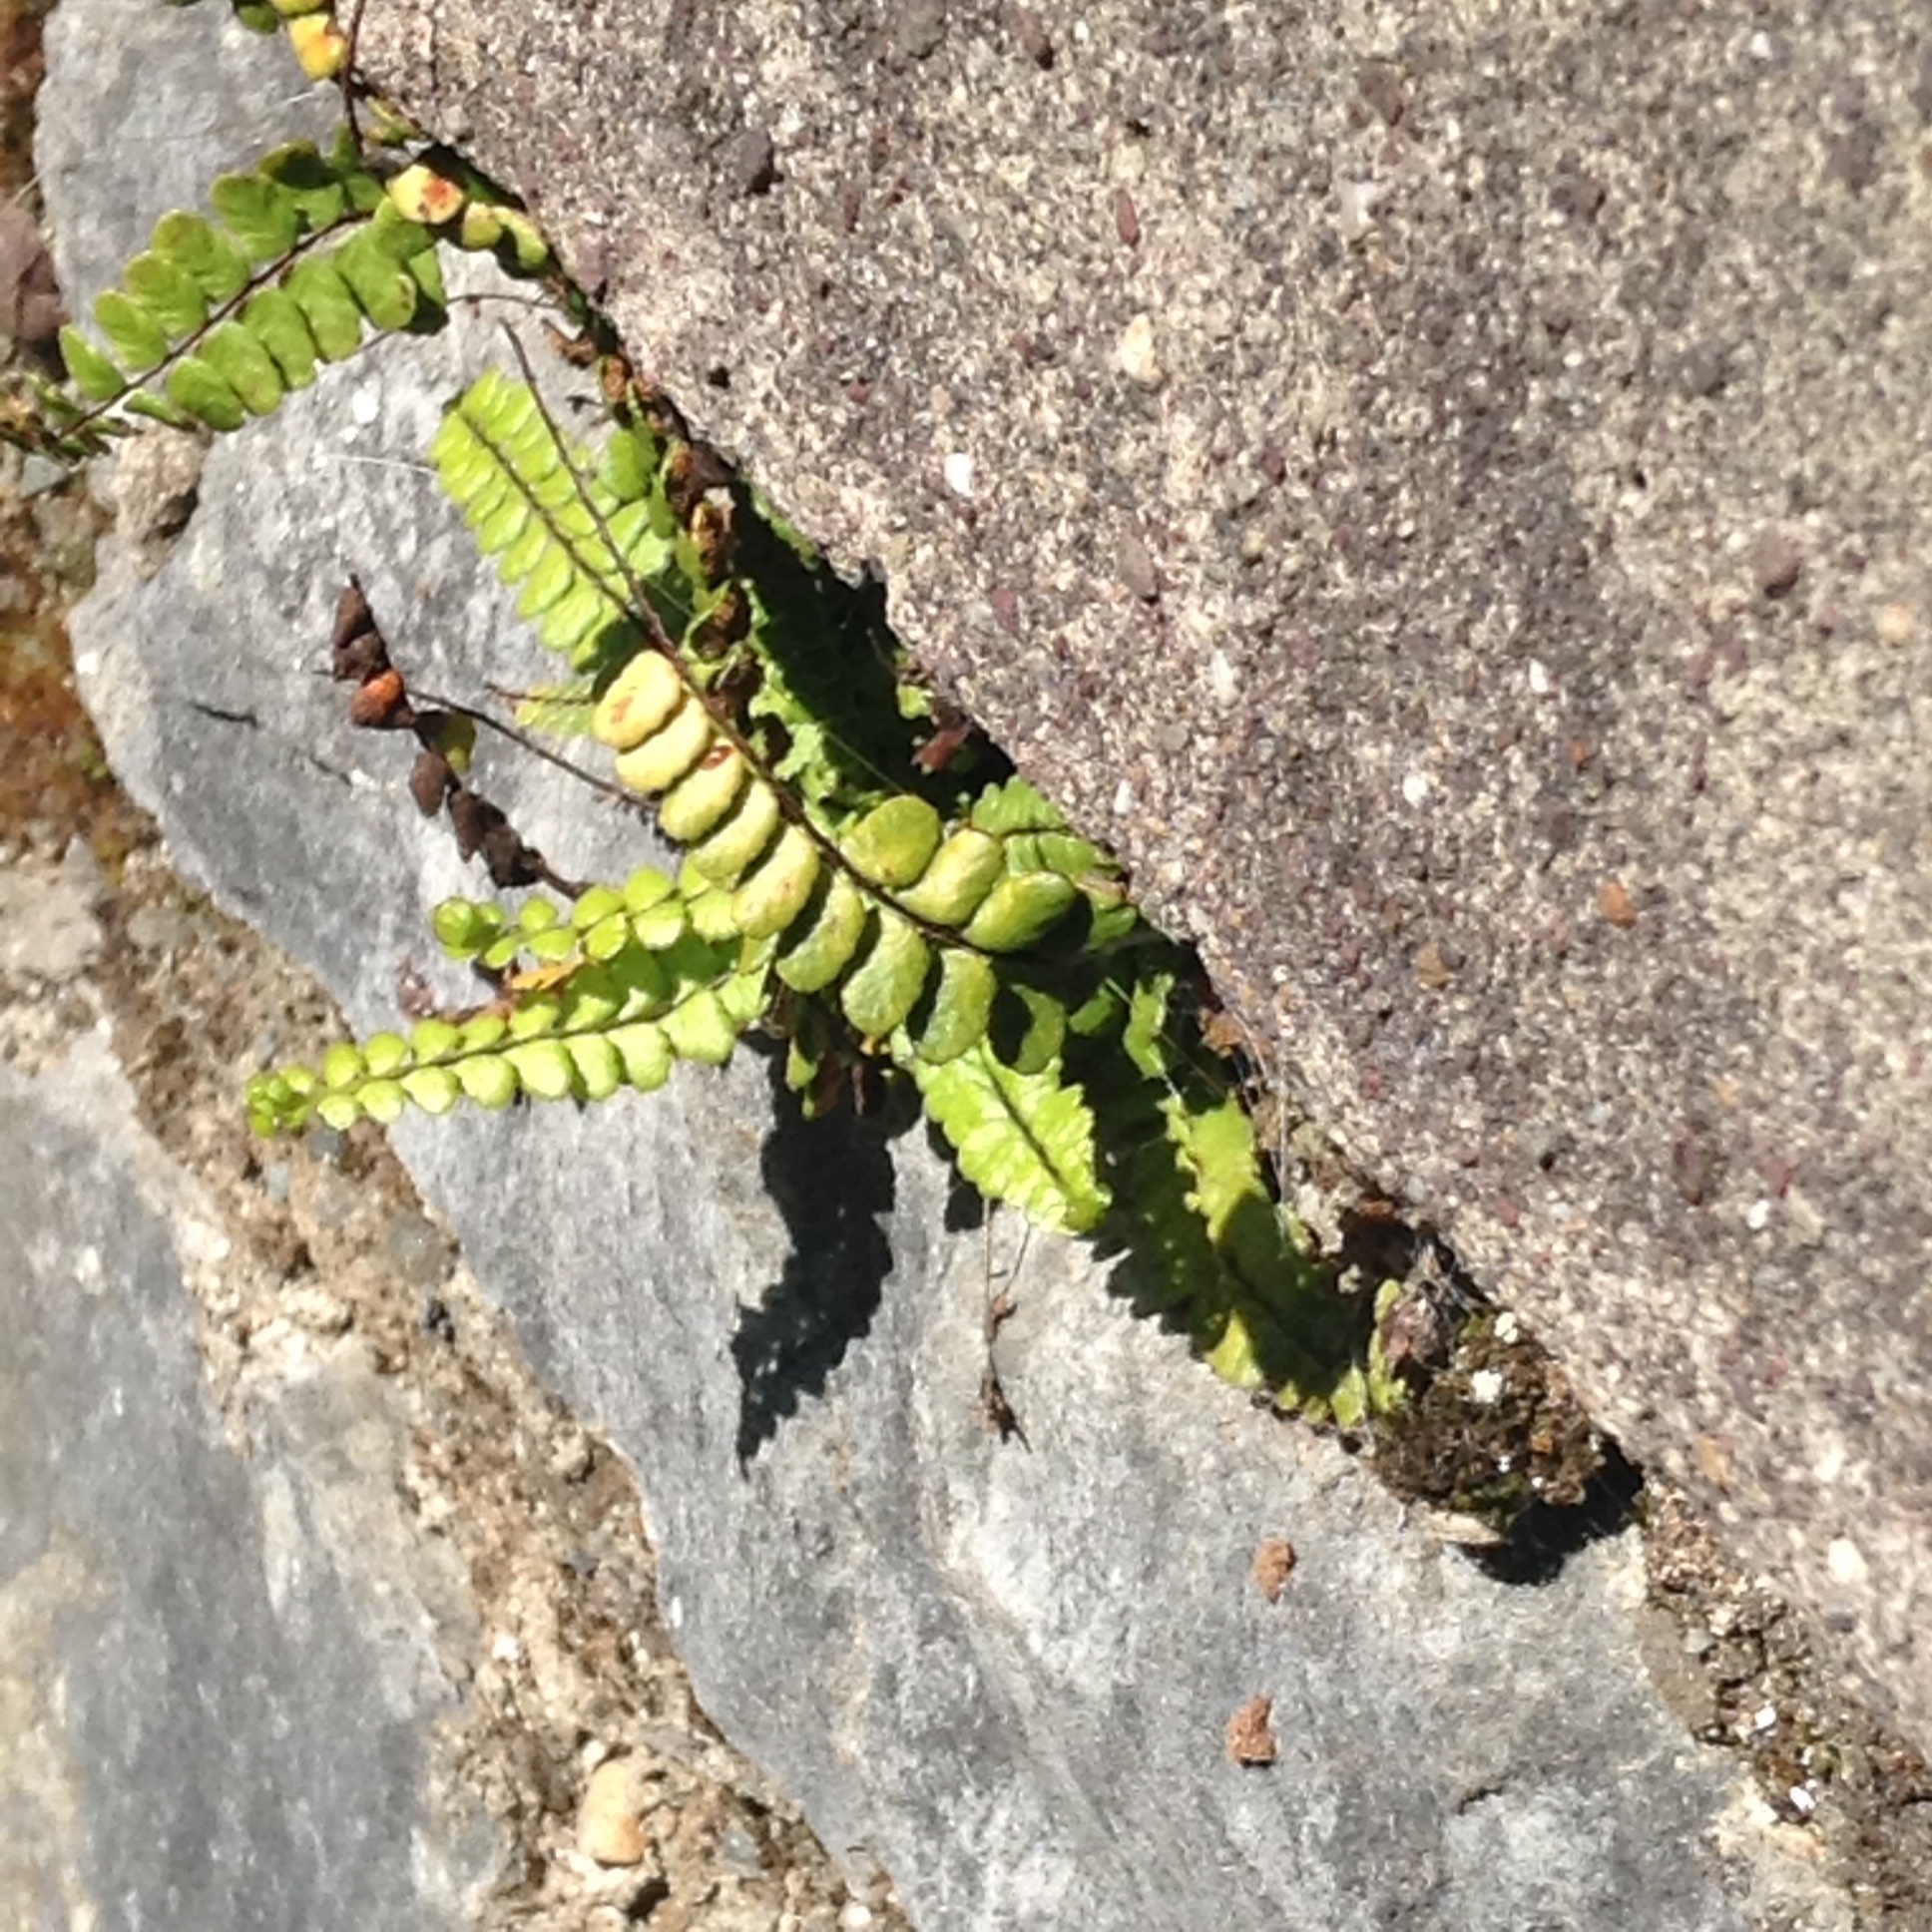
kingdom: Plantae
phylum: Tracheophyta
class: Polypodiopsida
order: Polypodiales
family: Aspleniaceae
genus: Asplenium
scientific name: Asplenium trichomanes
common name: Maidenhair spleenwort
